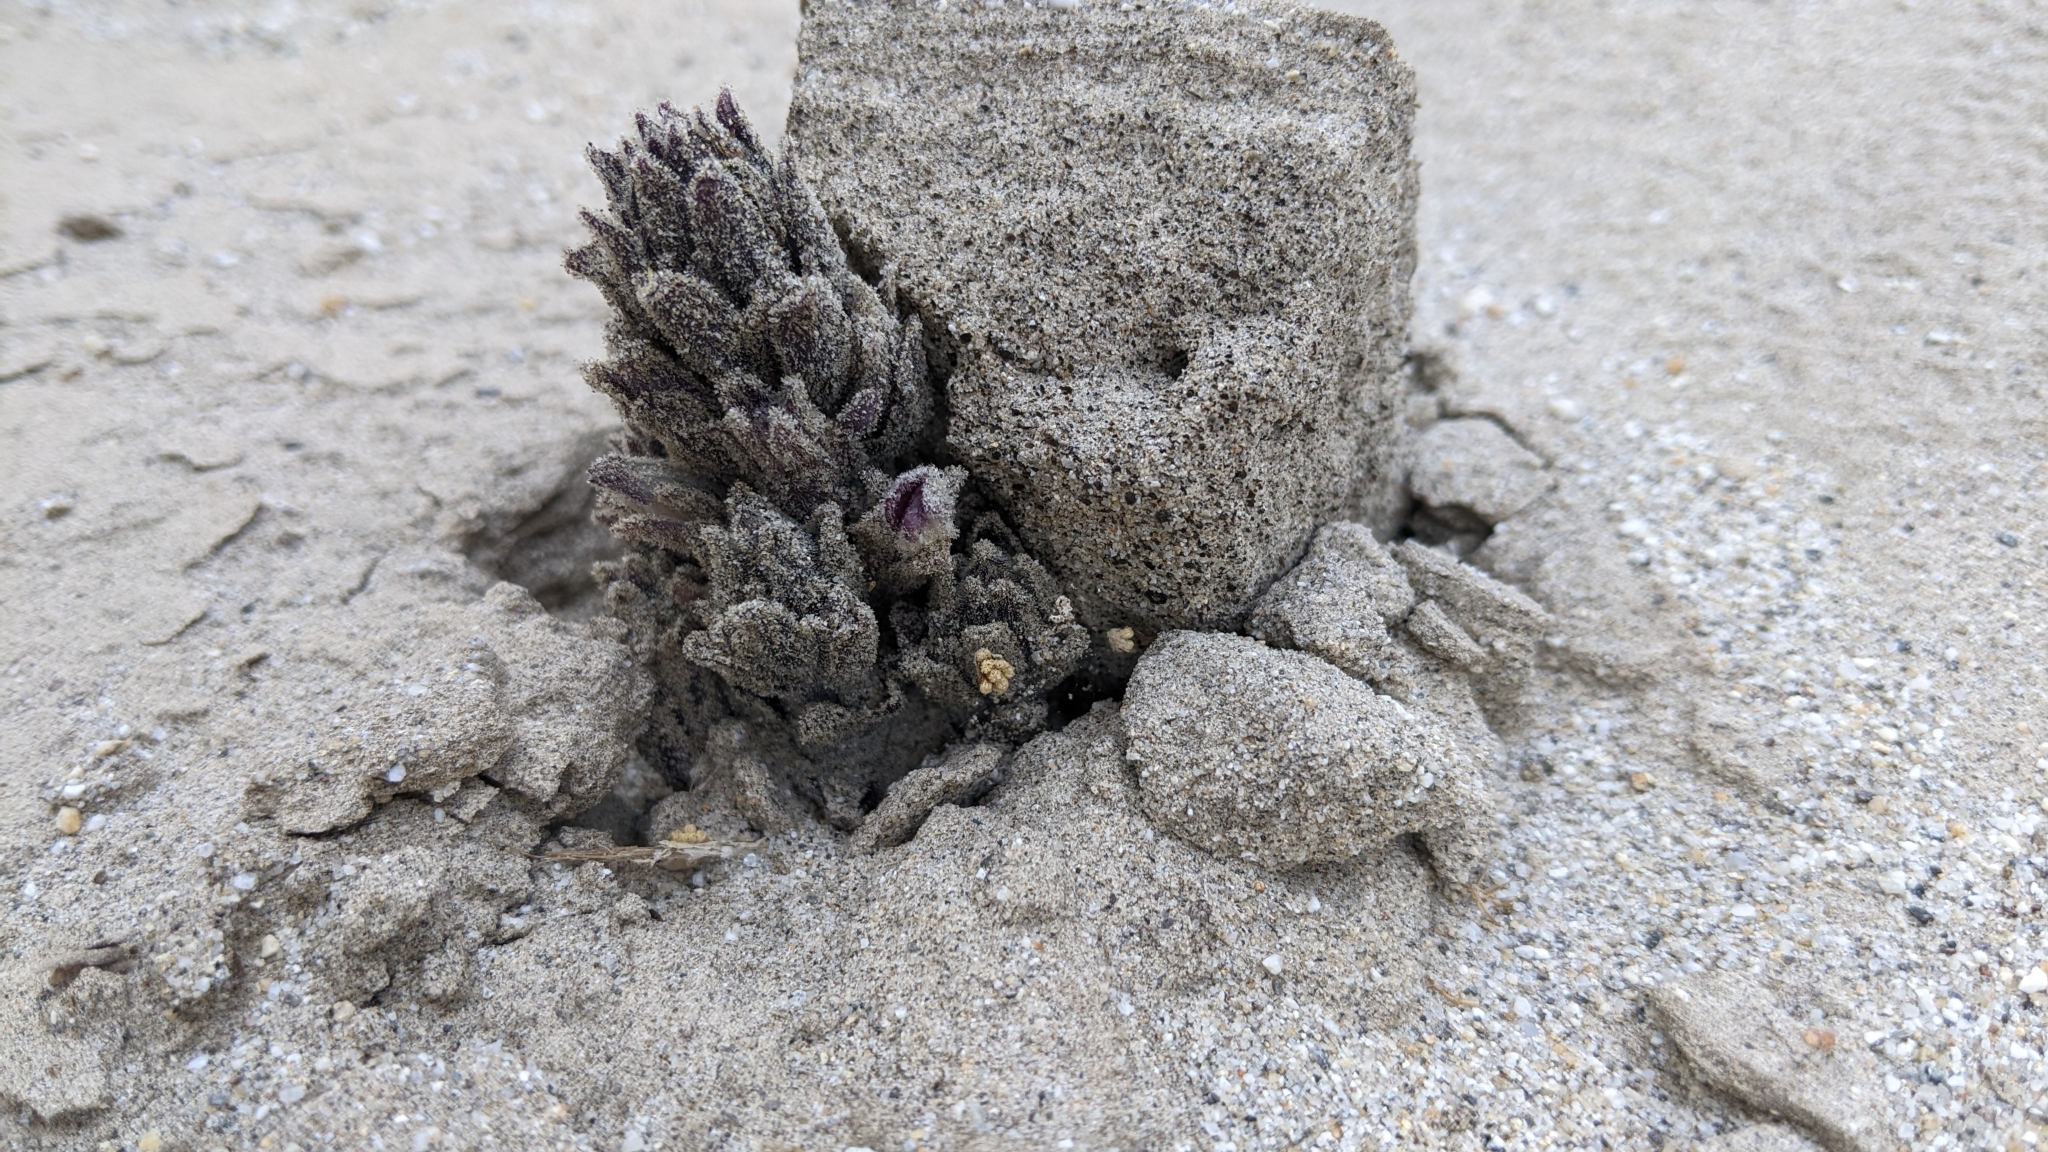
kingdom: Plantae
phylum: Tracheophyta
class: Magnoliopsida
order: Lamiales
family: Orobanchaceae
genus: Aphyllon
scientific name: Aphyllon cooperi
